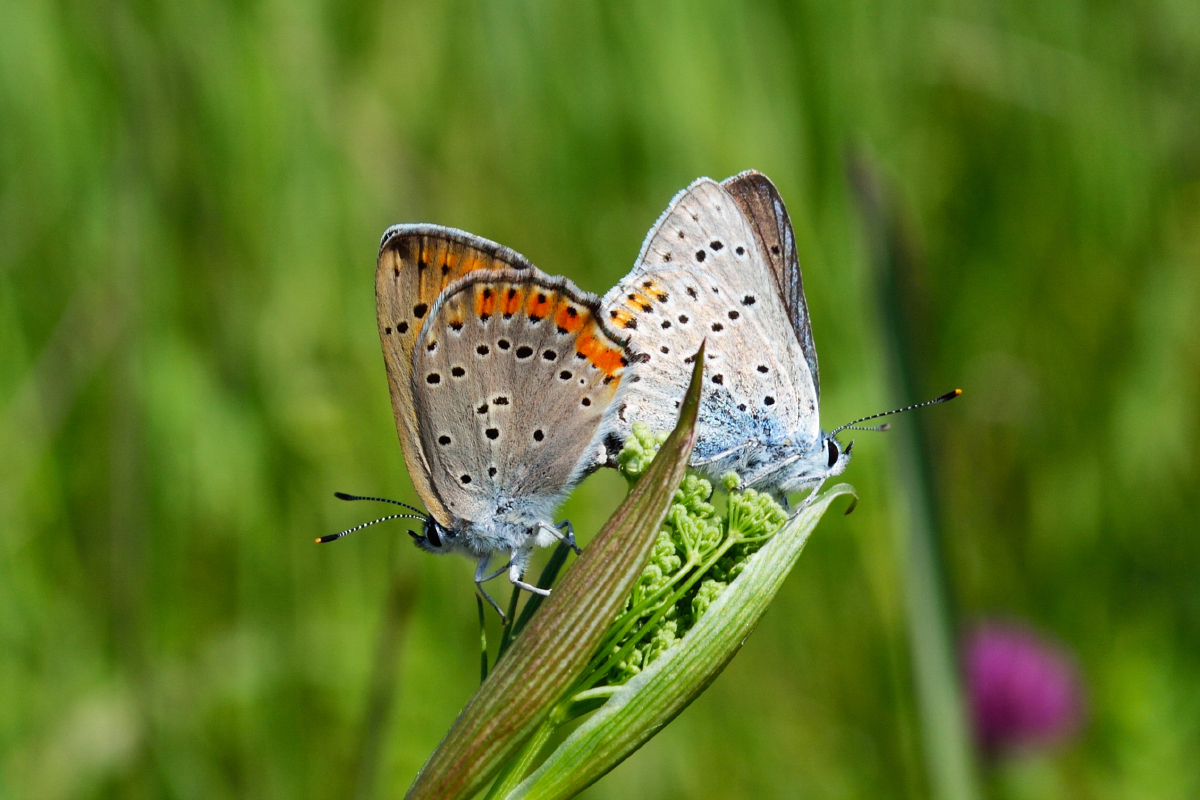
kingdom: Animalia
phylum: Arthropoda
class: Insecta
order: Lepidoptera
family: Lycaenidae
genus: Lycaena
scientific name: Lycaena alciphron
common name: Purple-shot copper
